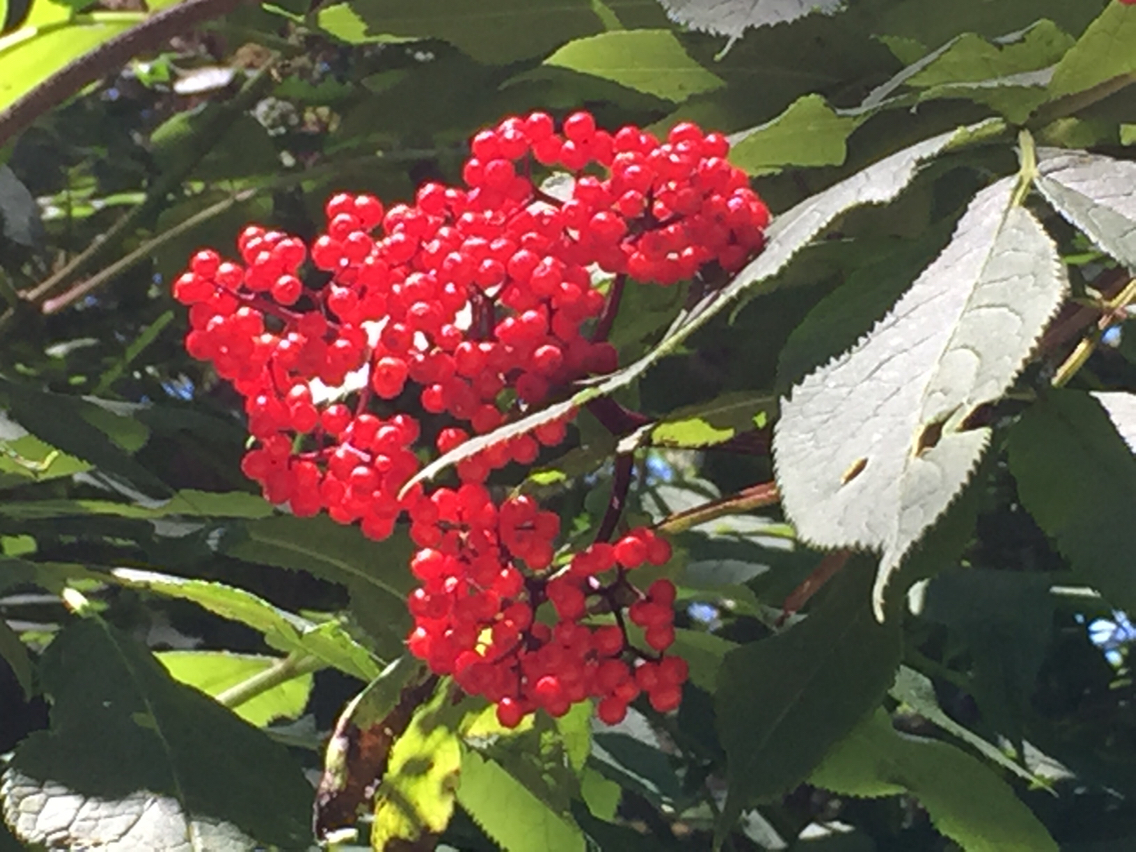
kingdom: Plantae
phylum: Tracheophyta
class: Magnoliopsida
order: Dipsacales
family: Viburnaceae
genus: Sambucus
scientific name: Sambucus racemosa
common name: Red-berried elder
